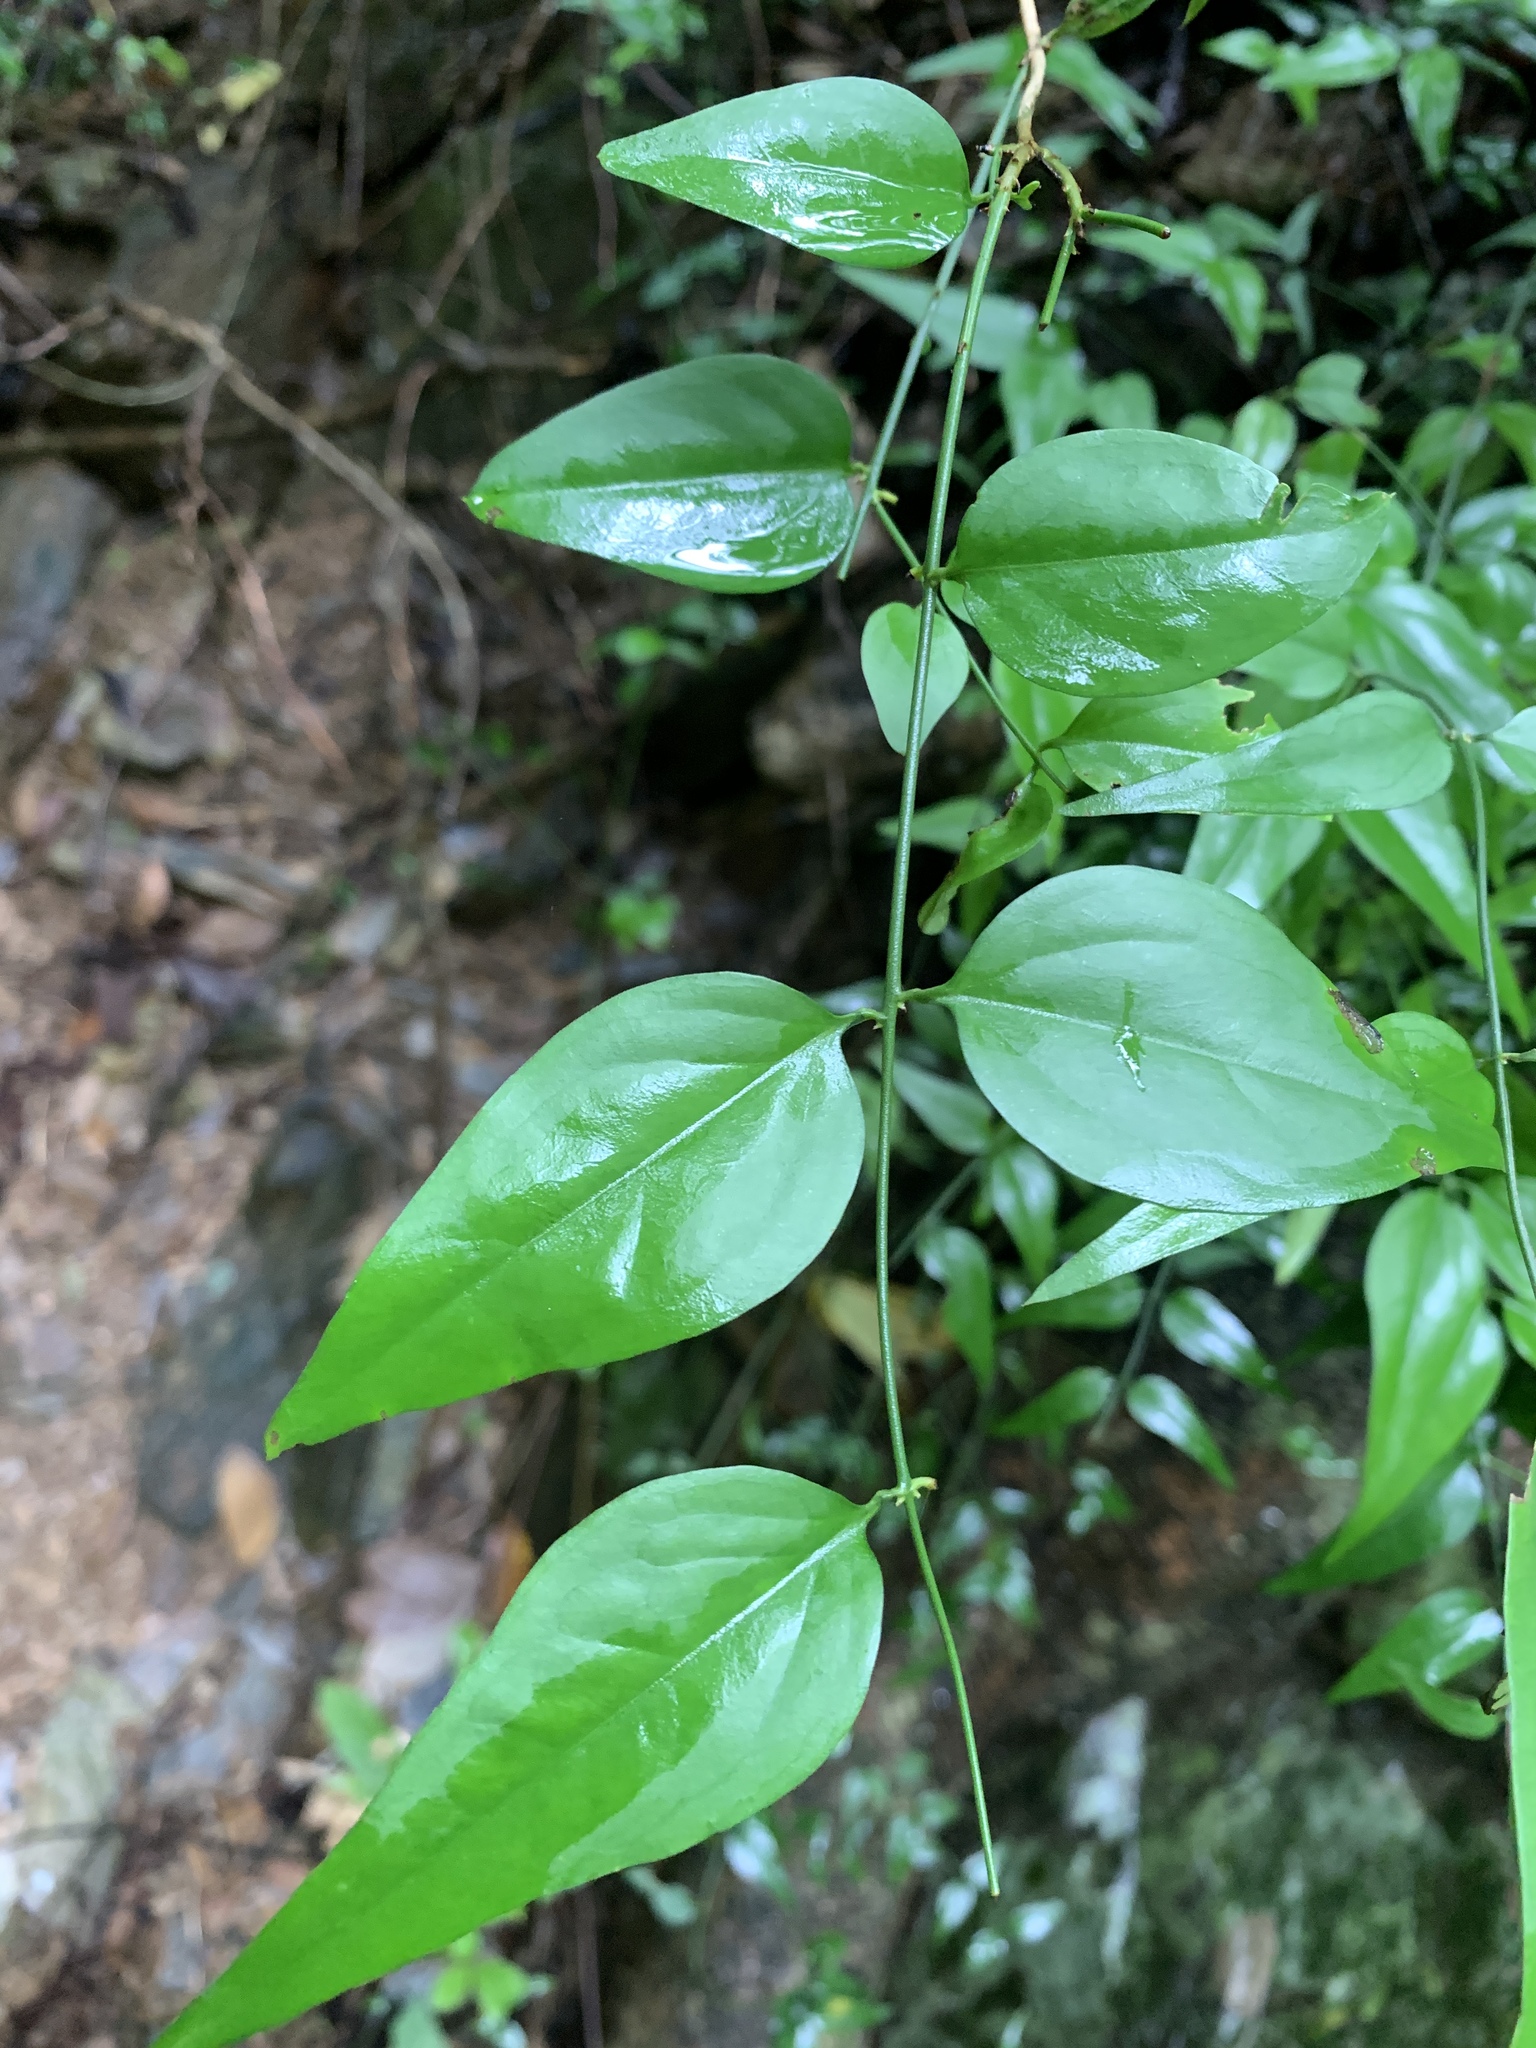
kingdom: Plantae
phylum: Tracheophyta
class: Magnoliopsida
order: Lamiales
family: Oleaceae
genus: Jasminum
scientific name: Jasminum nervosum
